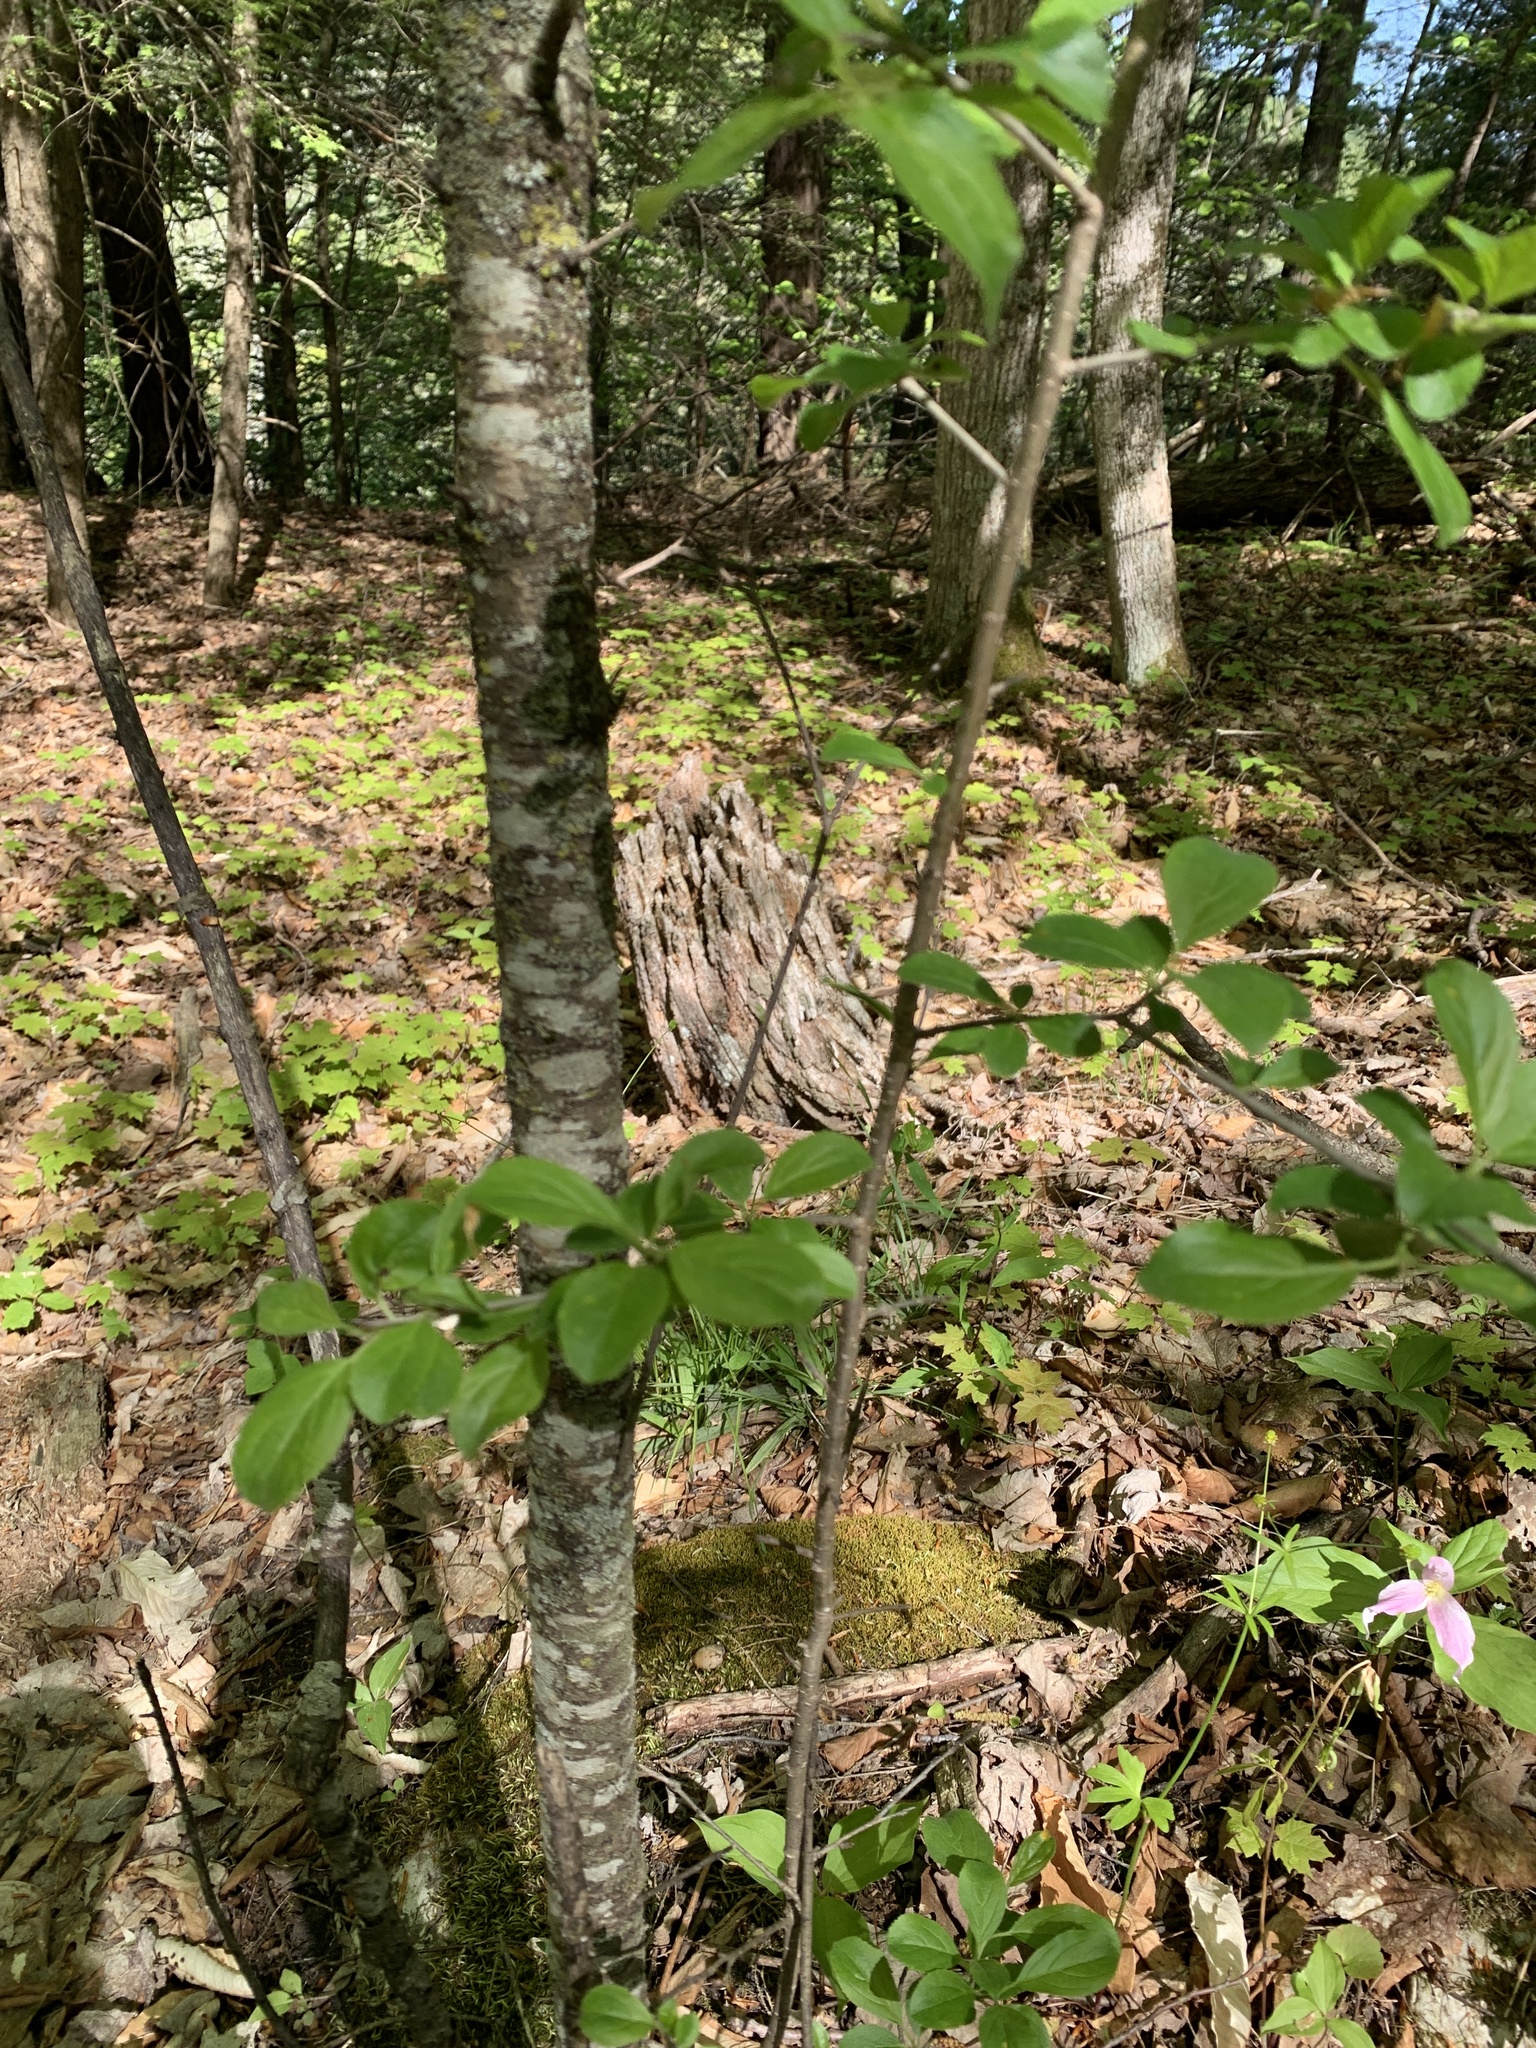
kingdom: Plantae
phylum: Tracheophyta
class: Magnoliopsida
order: Rosales
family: Rhamnaceae
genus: Rhamnus
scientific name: Rhamnus cathartica
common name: Common buckthorn
